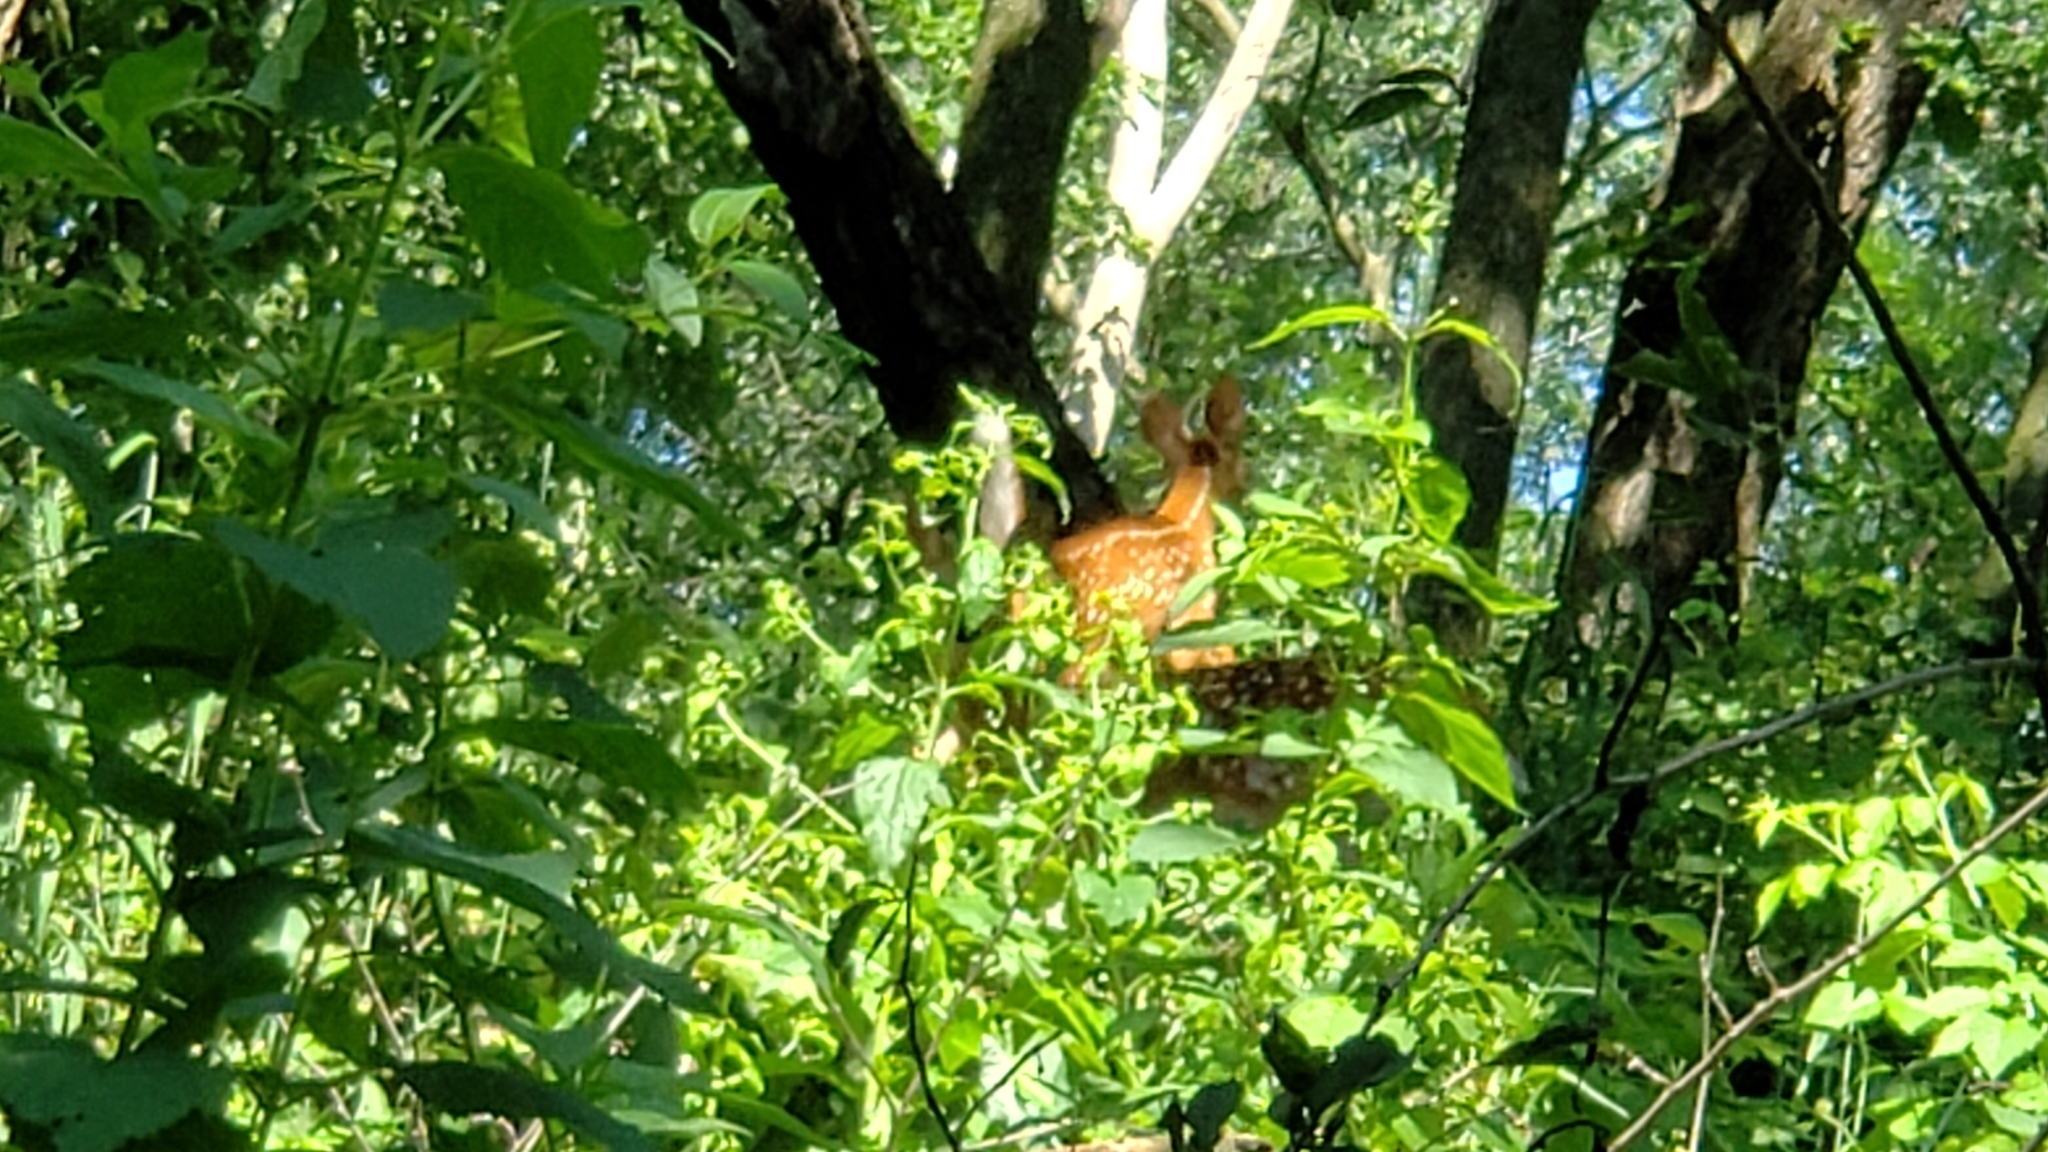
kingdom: Animalia
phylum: Chordata
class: Mammalia
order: Artiodactyla
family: Cervidae
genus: Odocoileus
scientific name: Odocoileus virginianus
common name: White-tailed deer
